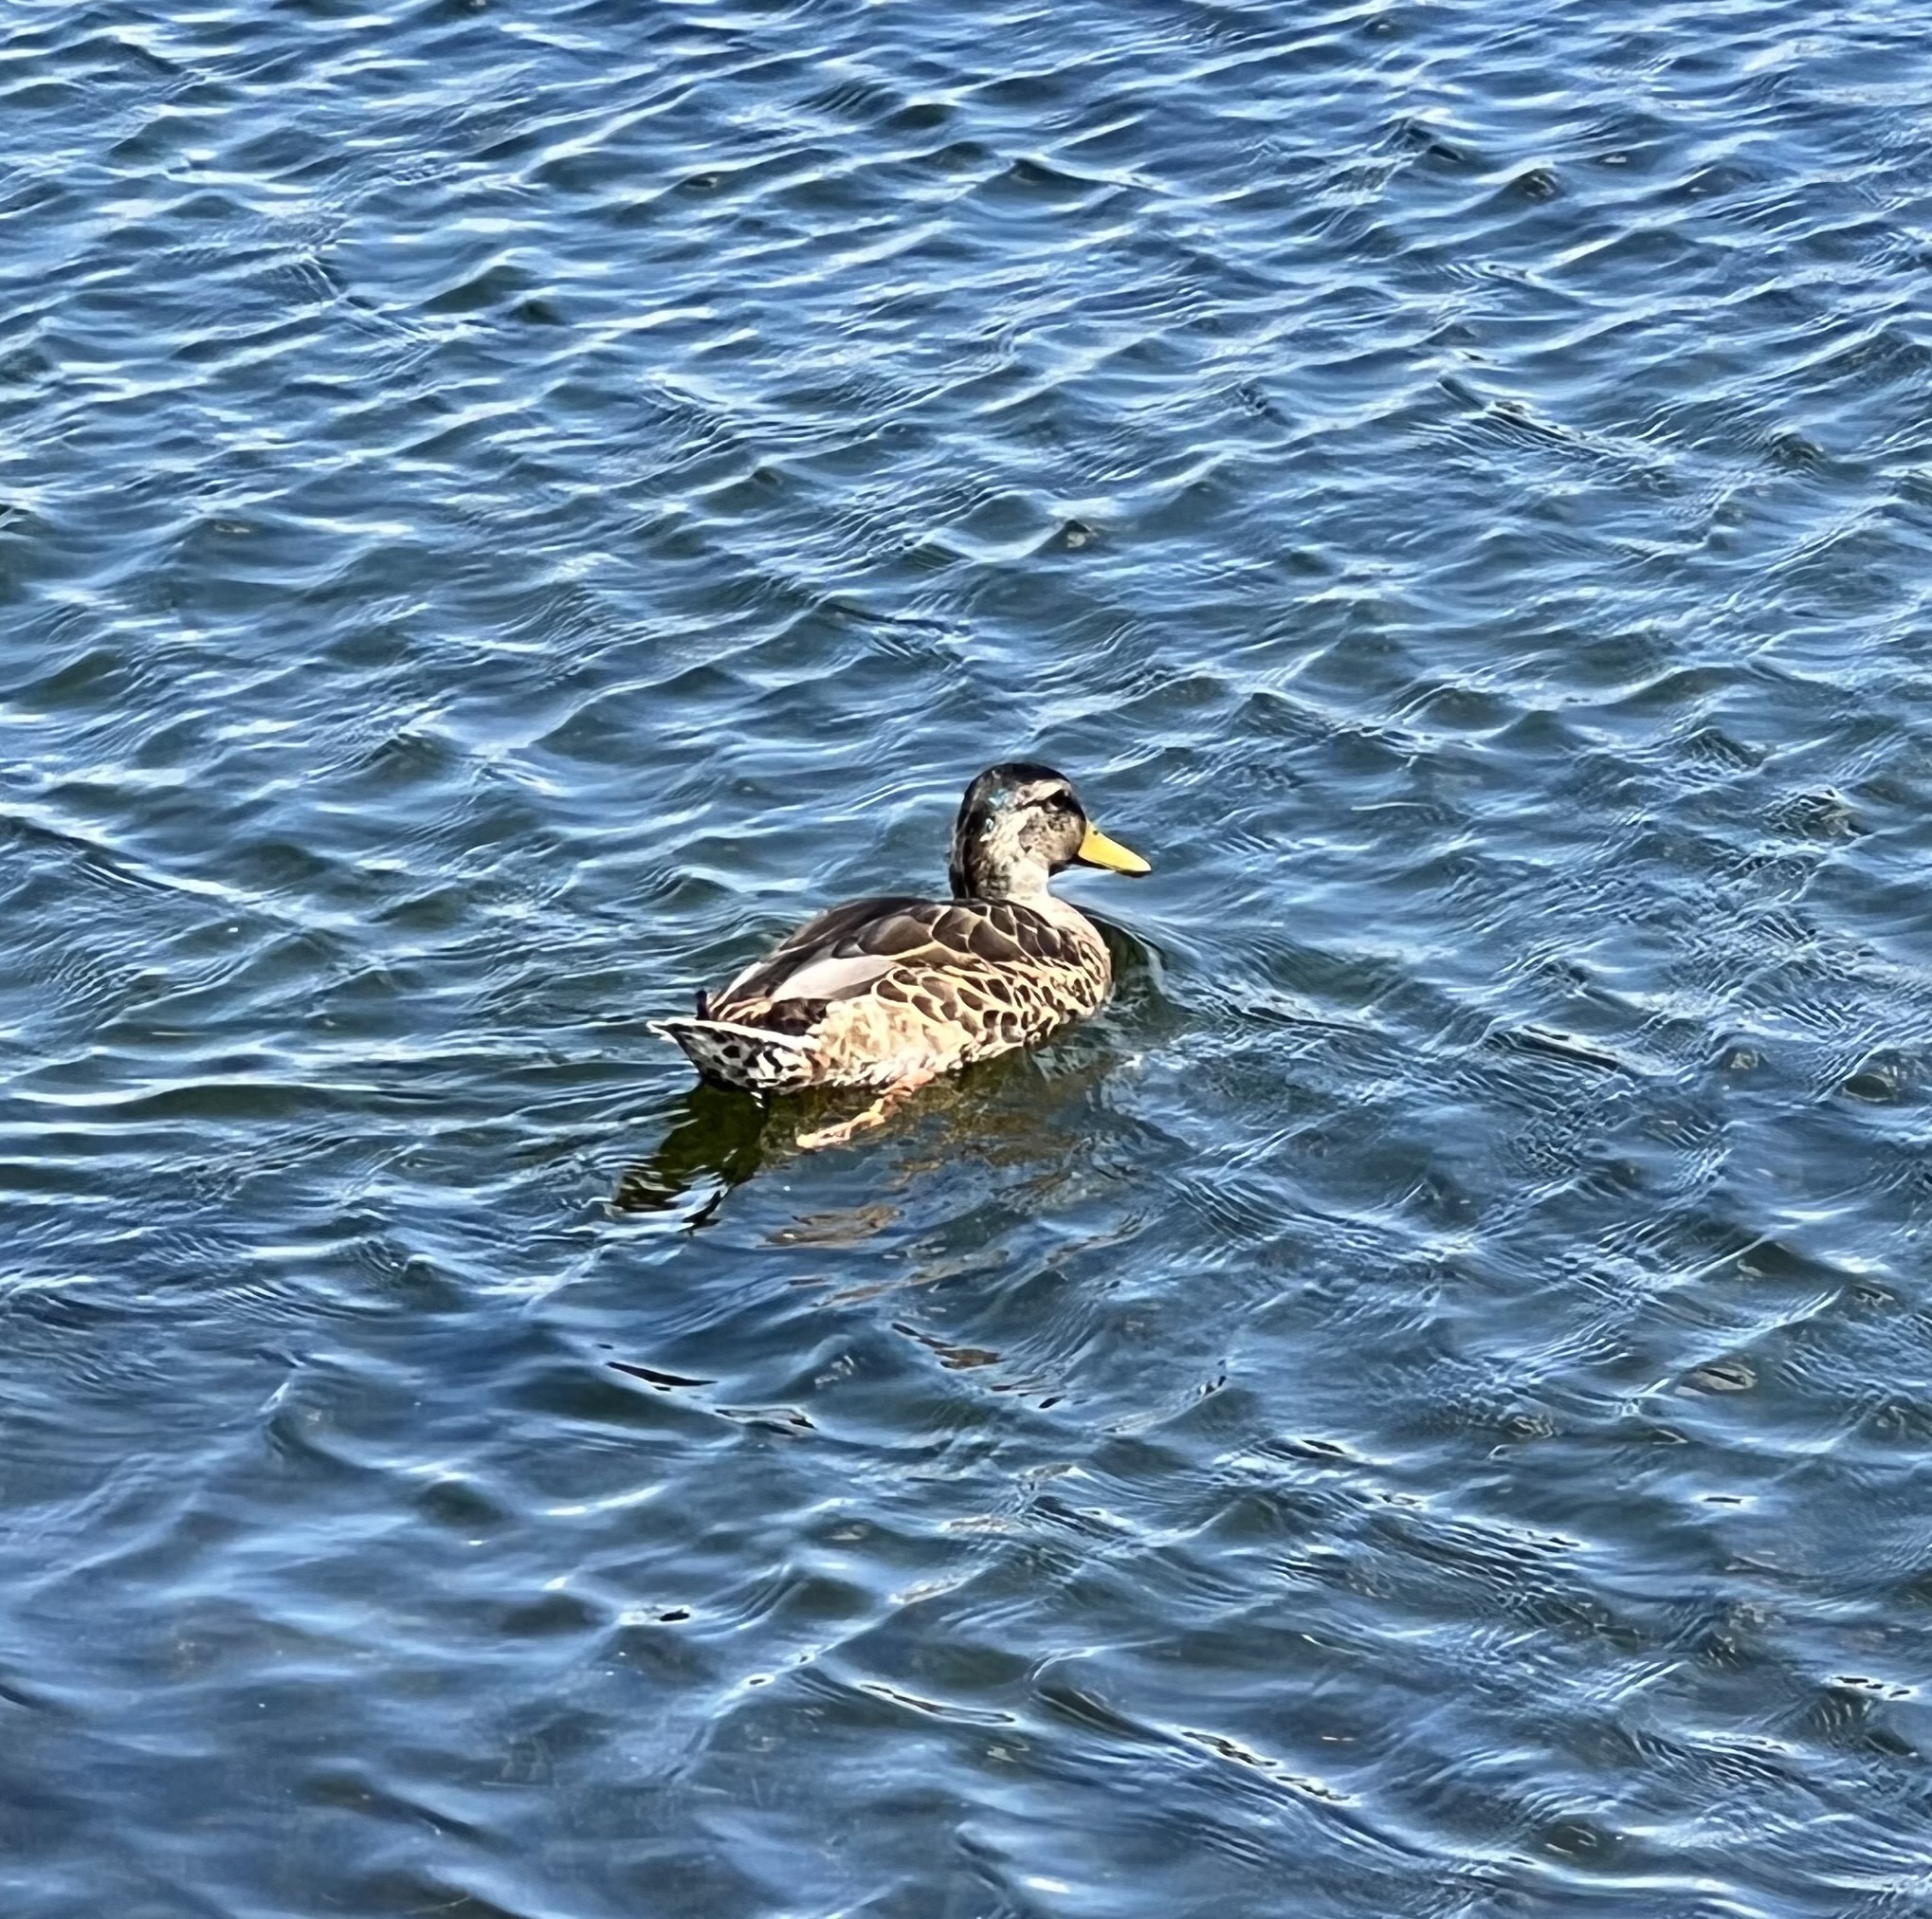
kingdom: Animalia
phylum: Chordata
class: Aves
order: Anseriformes
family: Anatidae
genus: Anas
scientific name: Anas platyrhynchos
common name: Mallard
